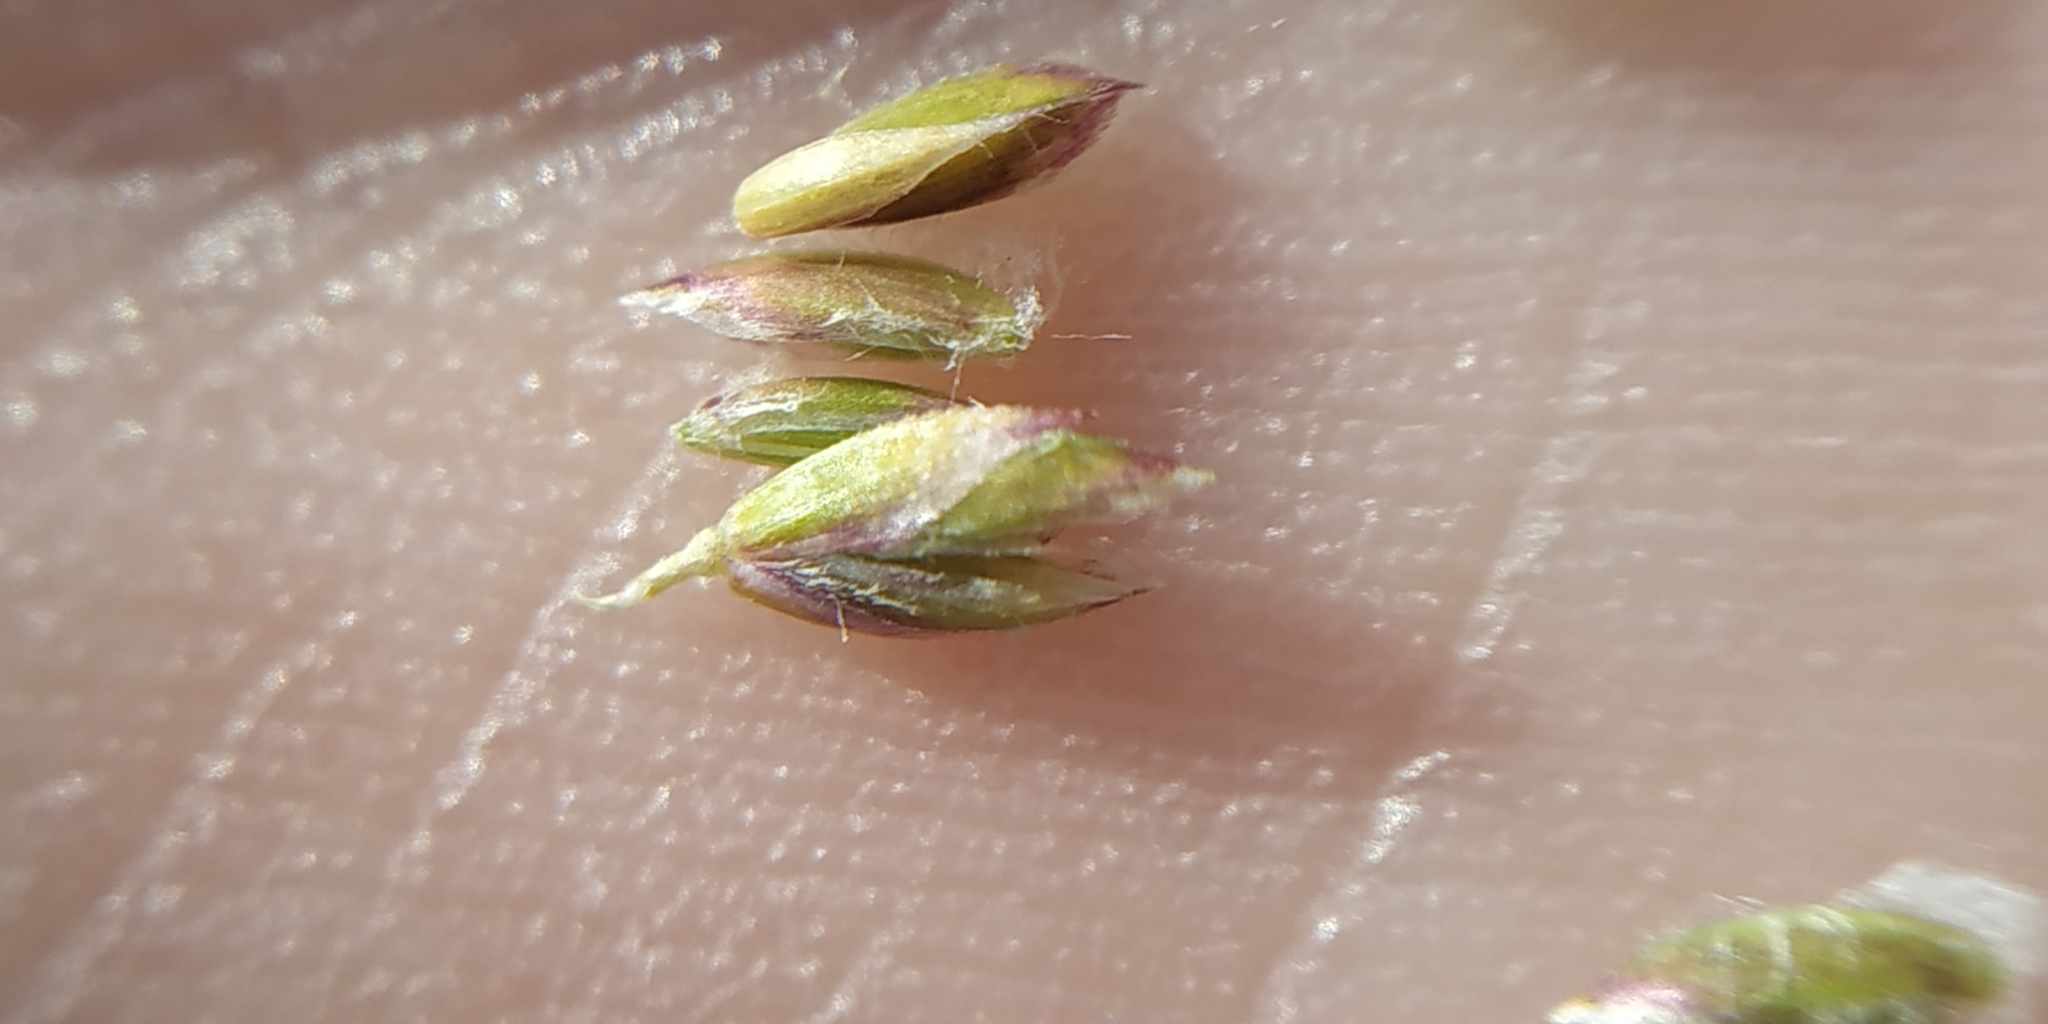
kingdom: Plantae
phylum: Tracheophyta
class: Liliopsida
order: Poales
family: Poaceae
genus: Poa
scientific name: Poa pratensis
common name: Kentucky bluegrass
